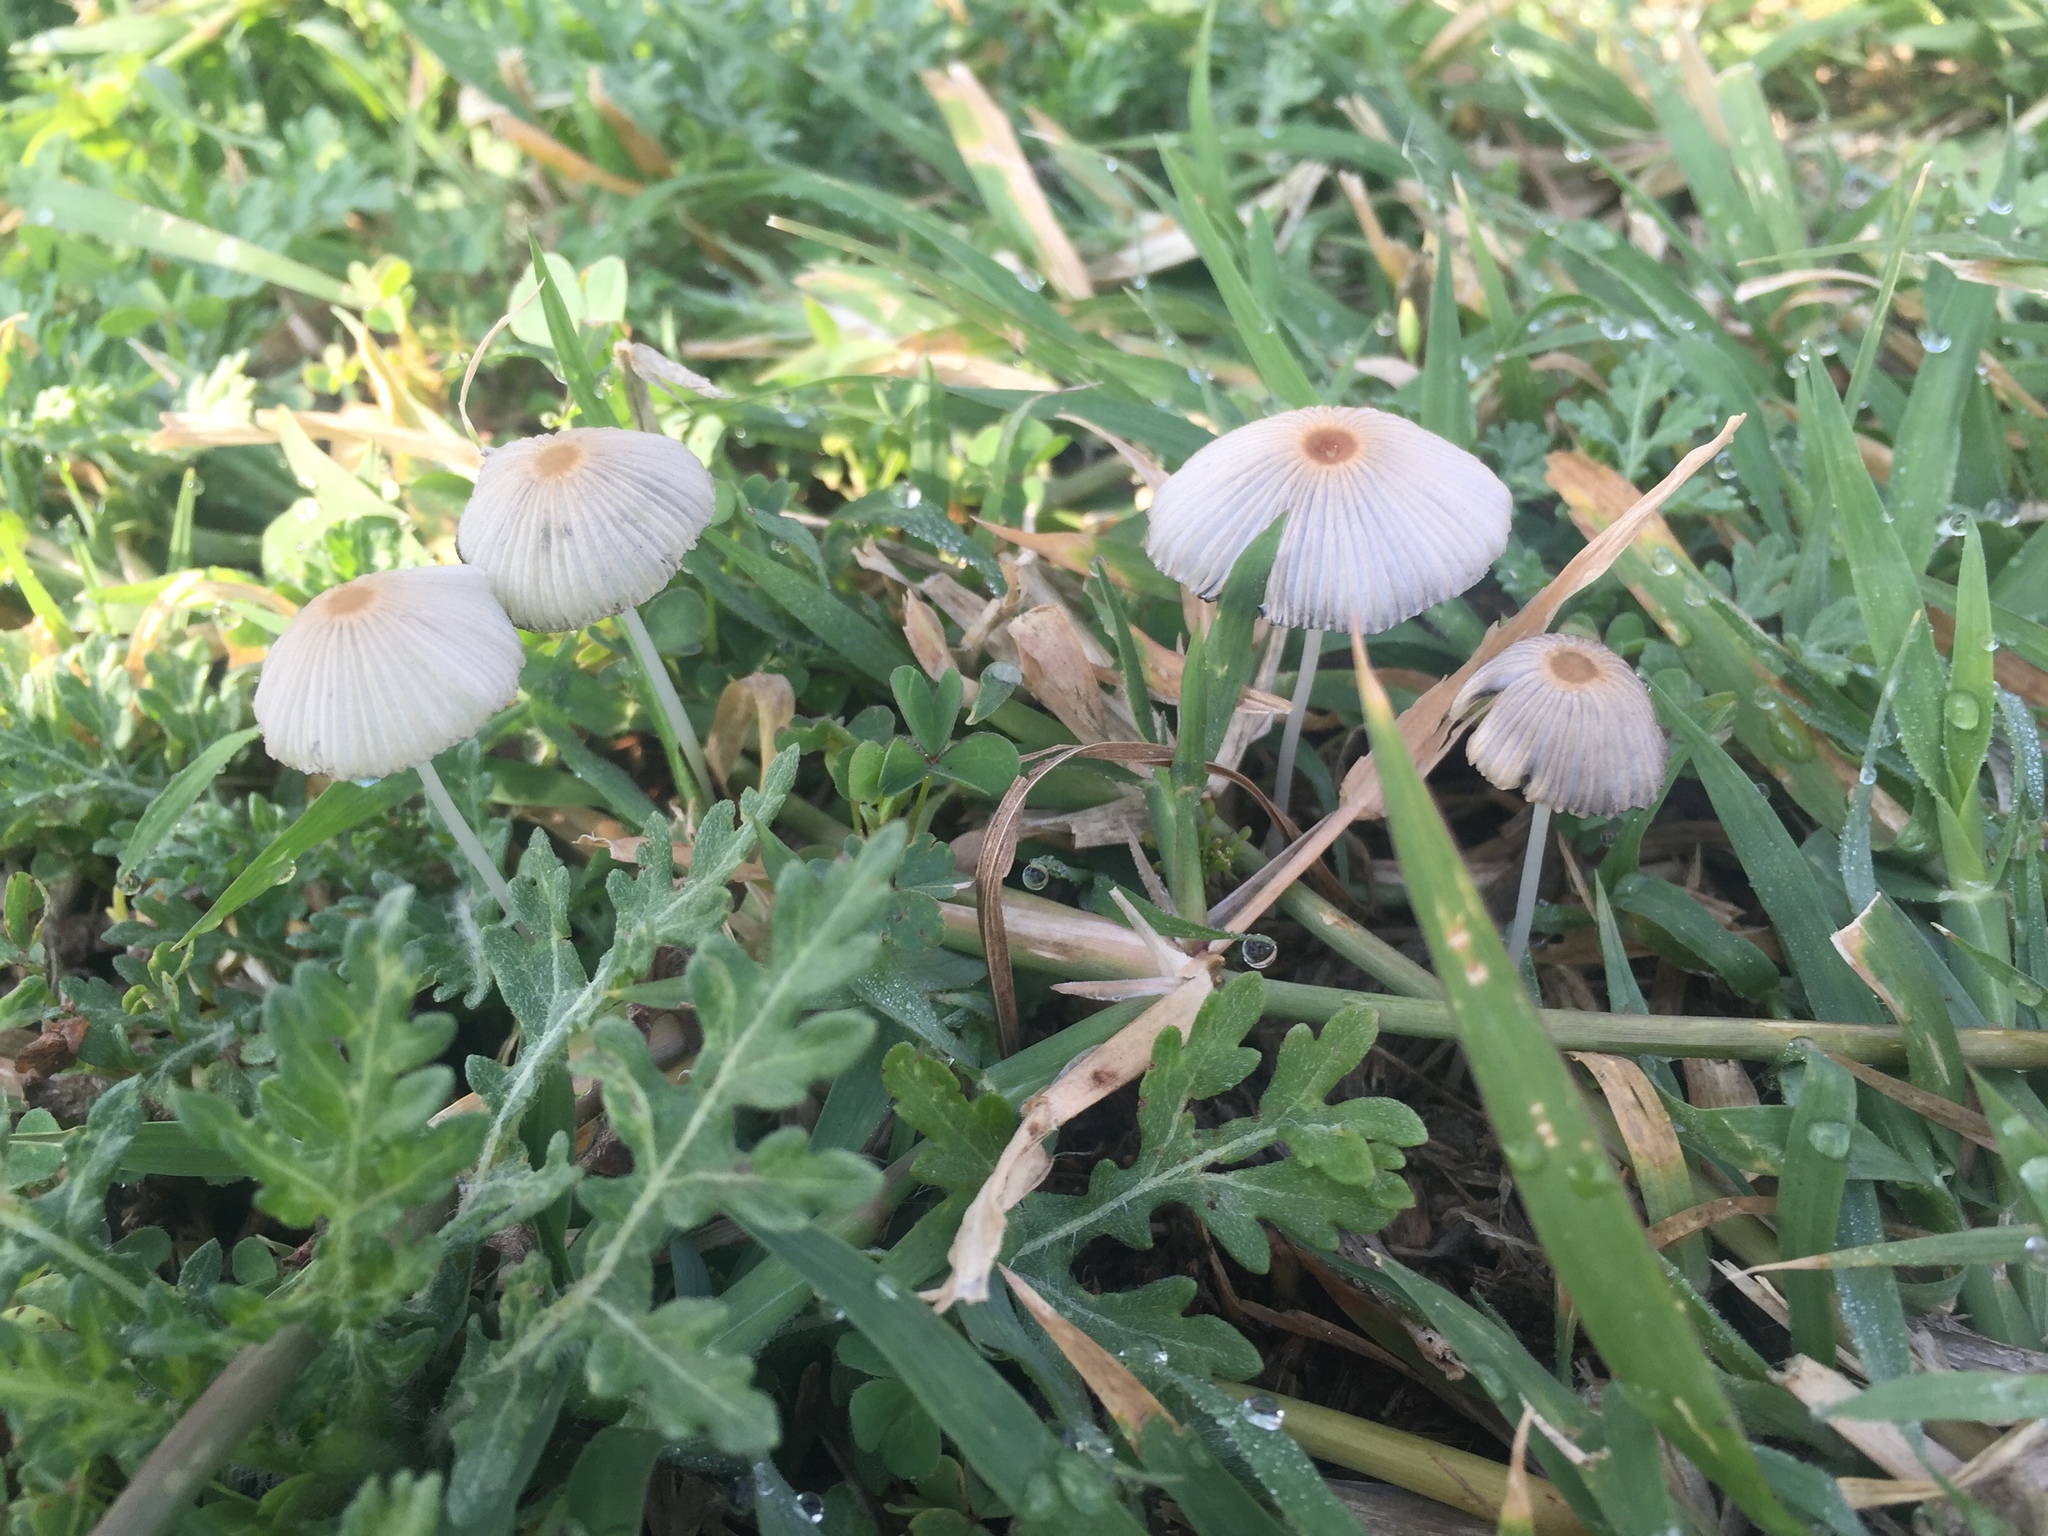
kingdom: Fungi
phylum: Basidiomycota
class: Agaricomycetes
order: Agaricales
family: Psathyrellaceae
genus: Parasola
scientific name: Parasola plicatilis
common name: Pleated inkcap
